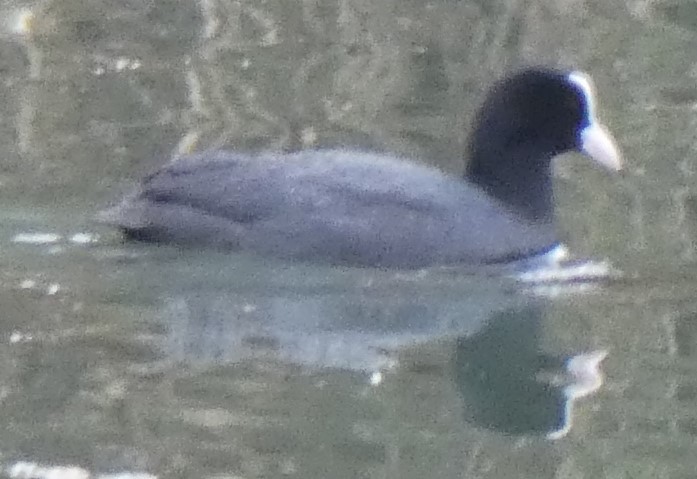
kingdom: Animalia
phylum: Chordata
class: Aves
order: Gruiformes
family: Rallidae
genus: Fulica
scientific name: Fulica atra
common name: Eurasian coot
